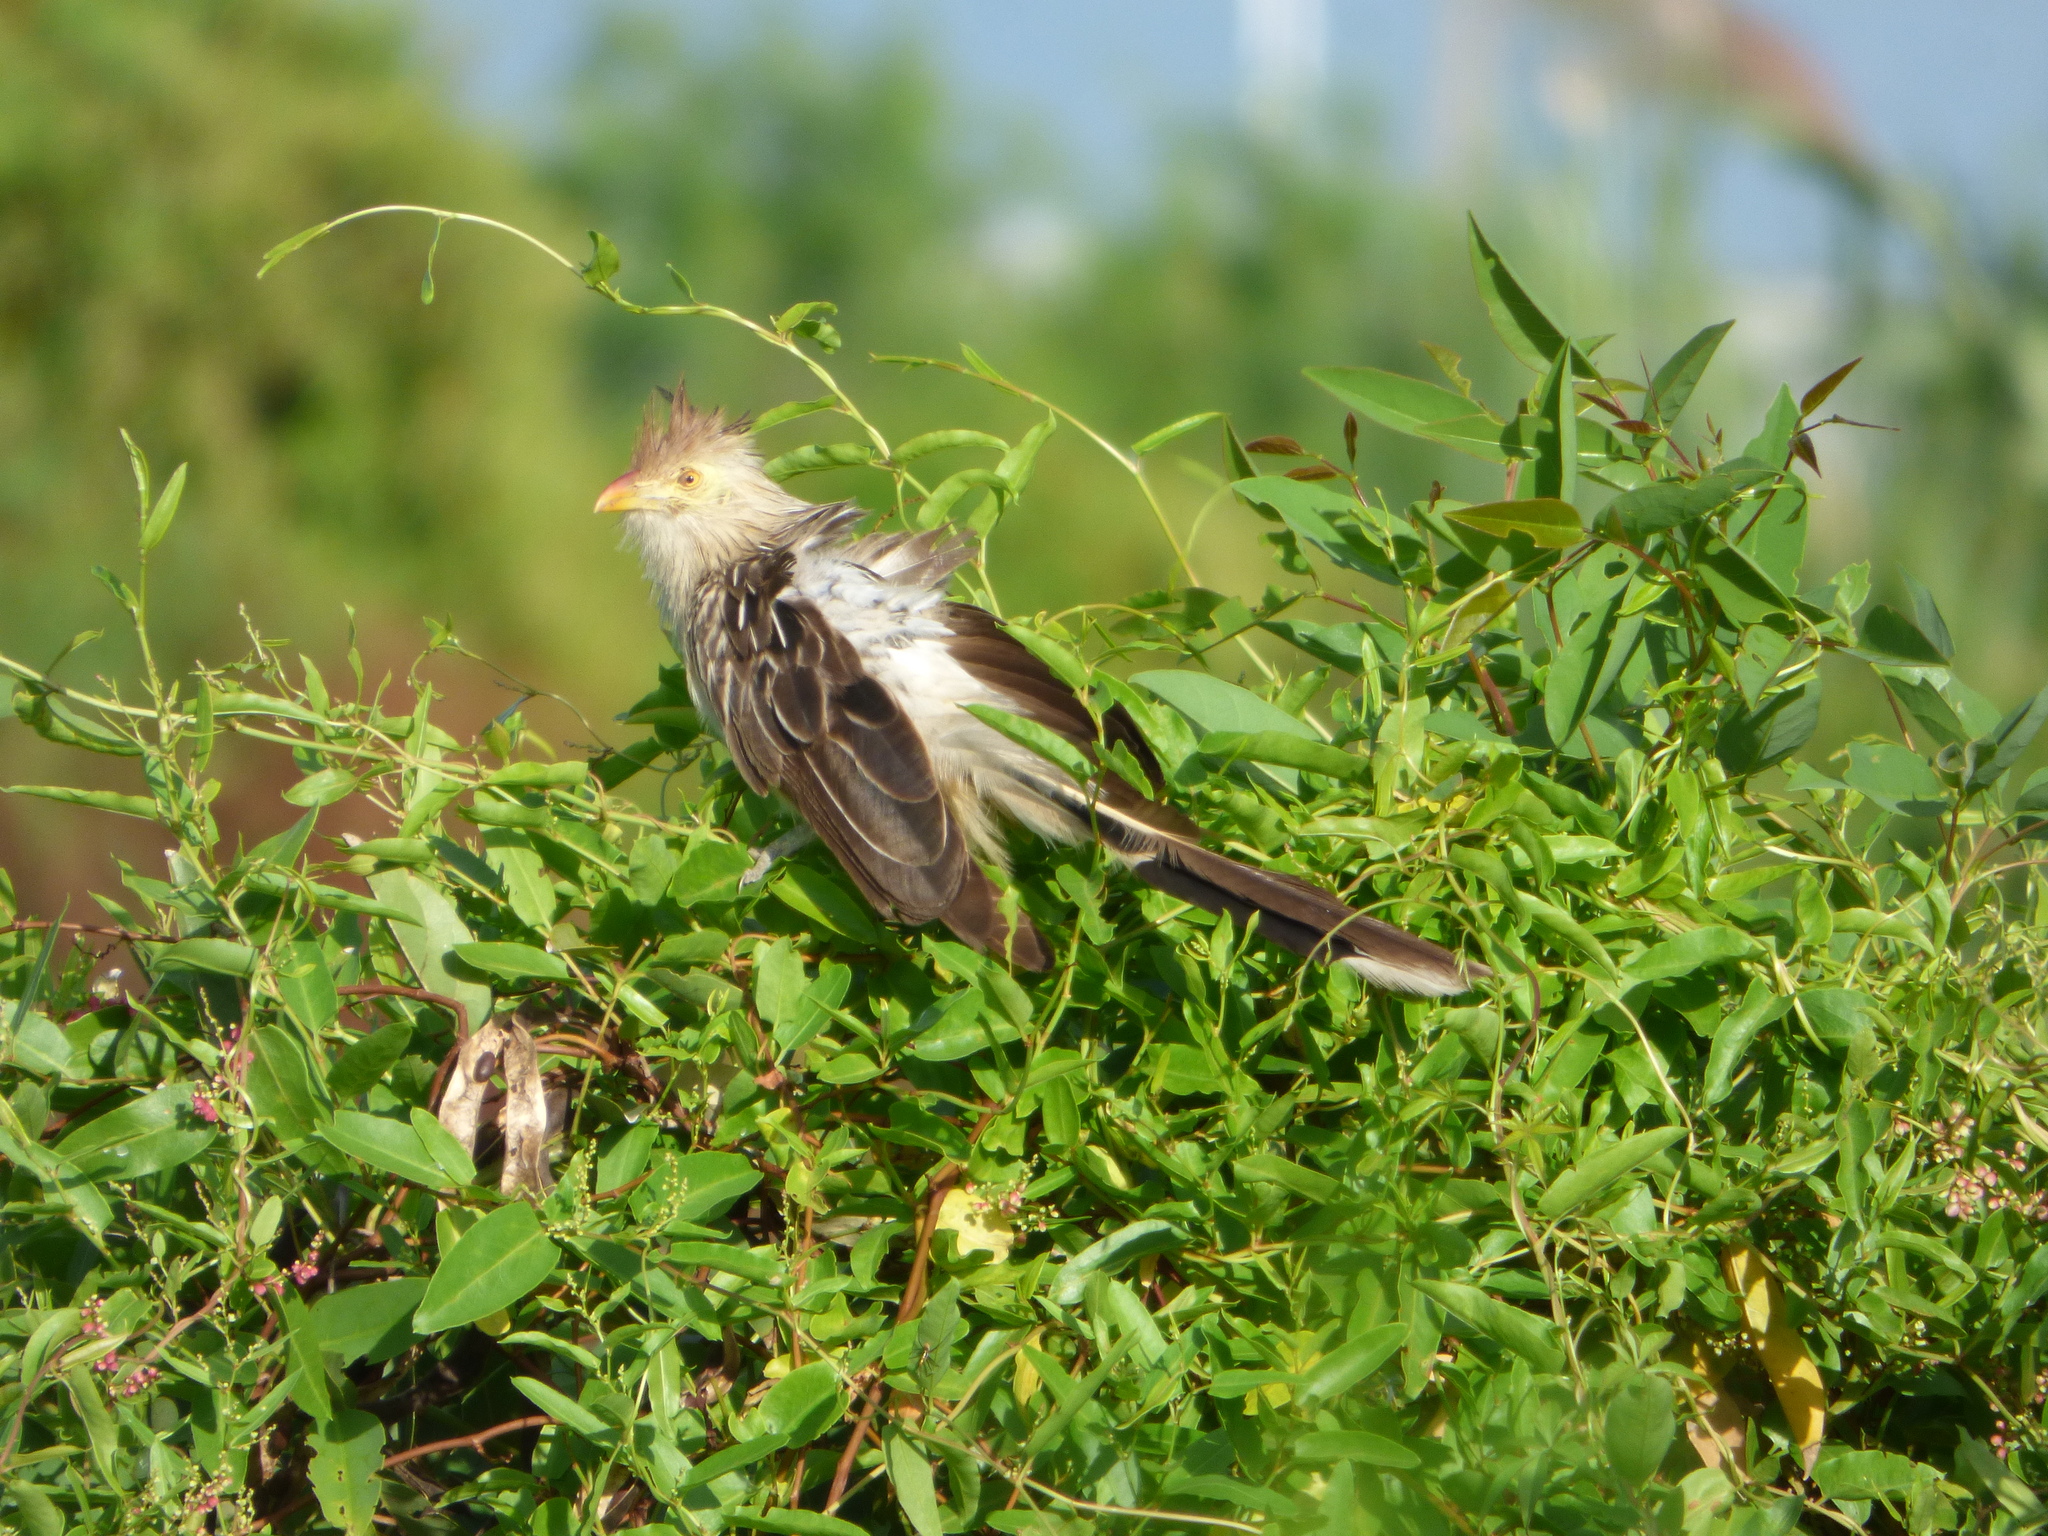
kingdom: Animalia
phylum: Chordata
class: Aves
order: Cuculiformes
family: Cuculidae
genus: Guira
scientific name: Guira guira
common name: Guira cuckoo
